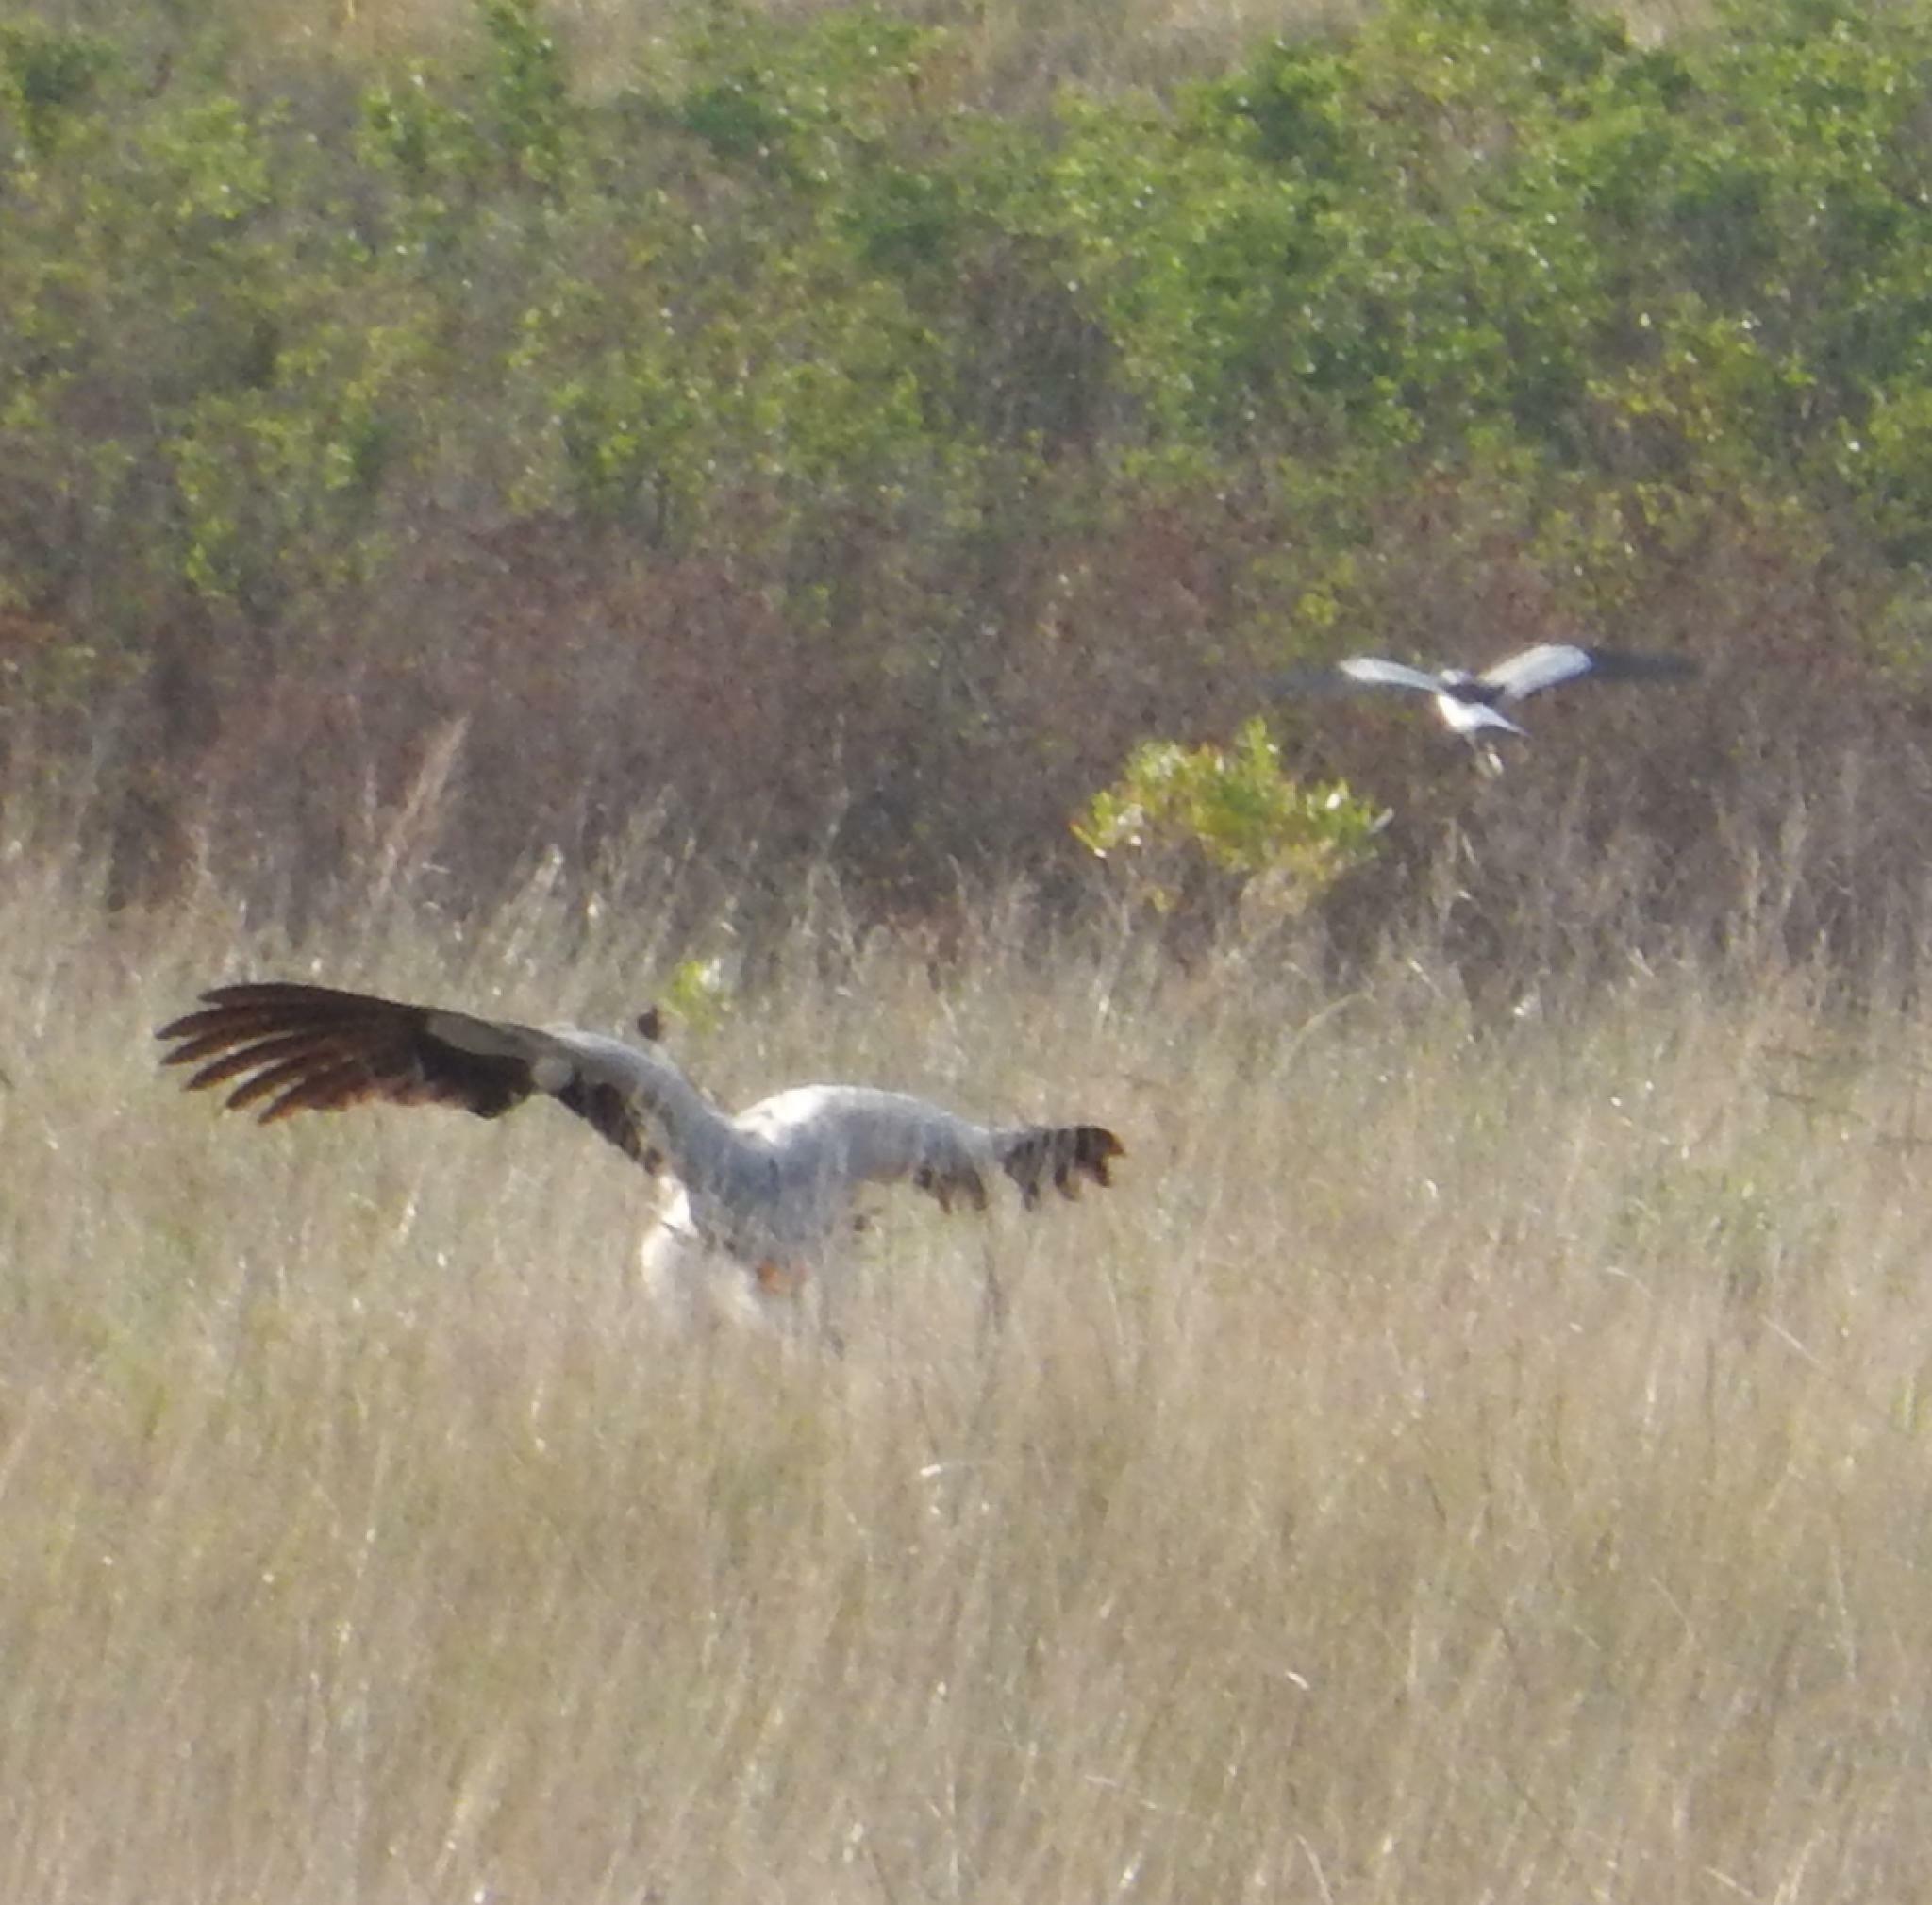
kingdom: Animalia
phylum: Chordata
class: Aves
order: Charadriiformes
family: Charadriidae
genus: Vanellus
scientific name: Vanellus armatus
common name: Blacksmith lapwing
